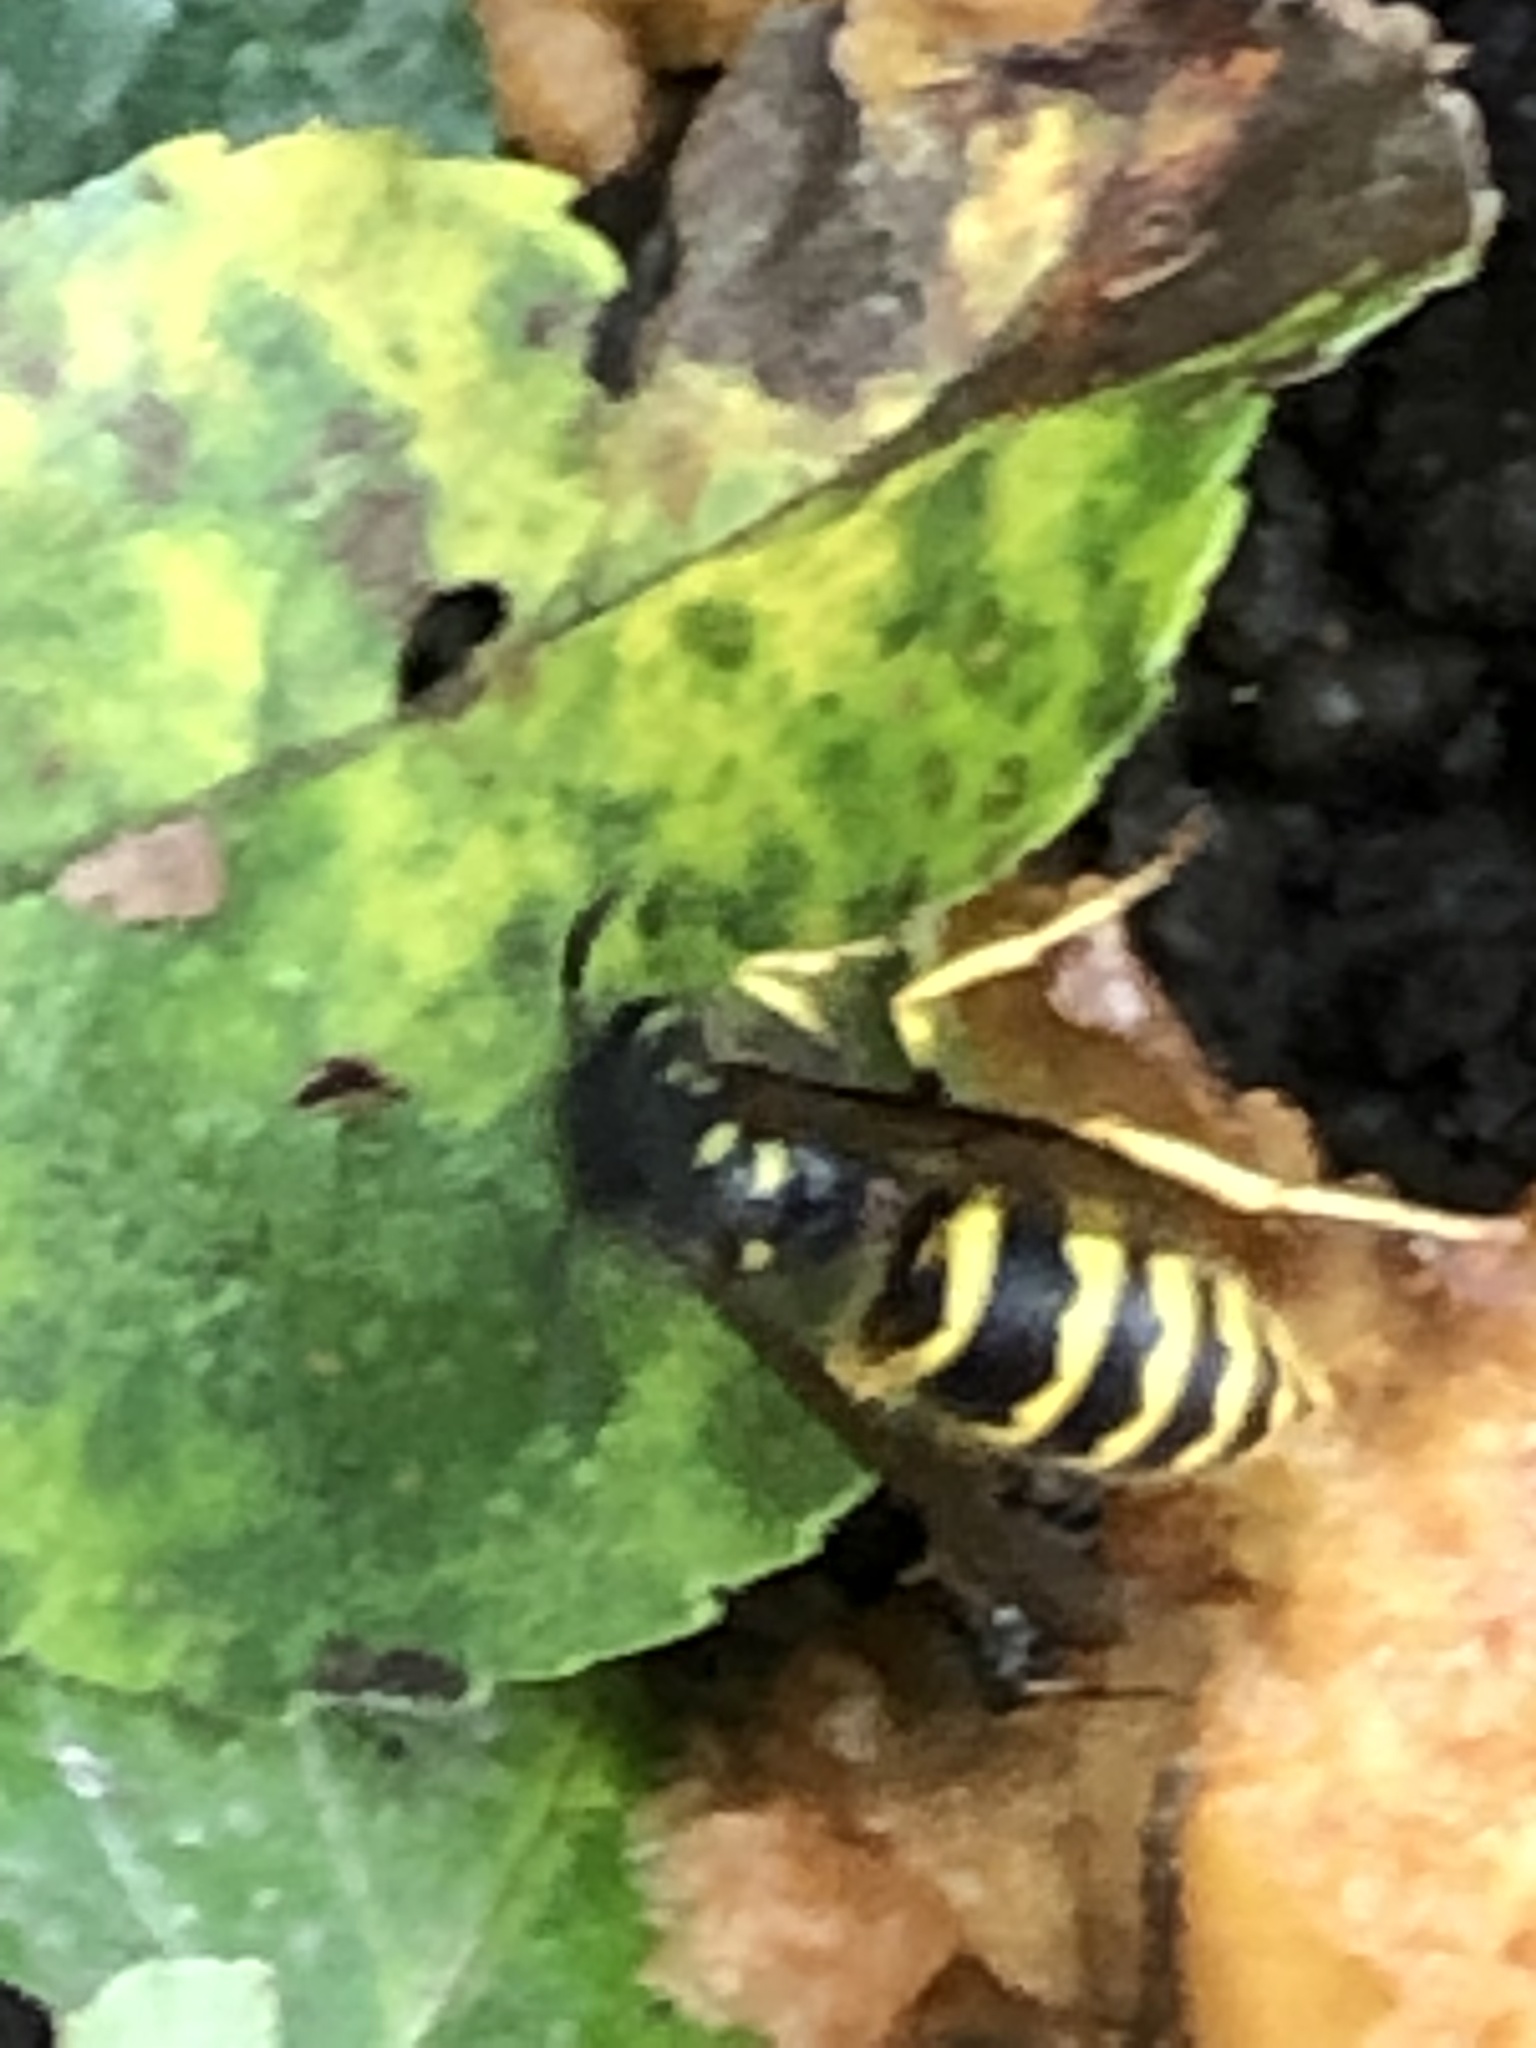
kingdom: Animalia
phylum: Arthropoda
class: Insecta
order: Hymenoptera
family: Vespidae
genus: Vespula
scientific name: Vespula alascensis
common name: Alaska yellowjacket
